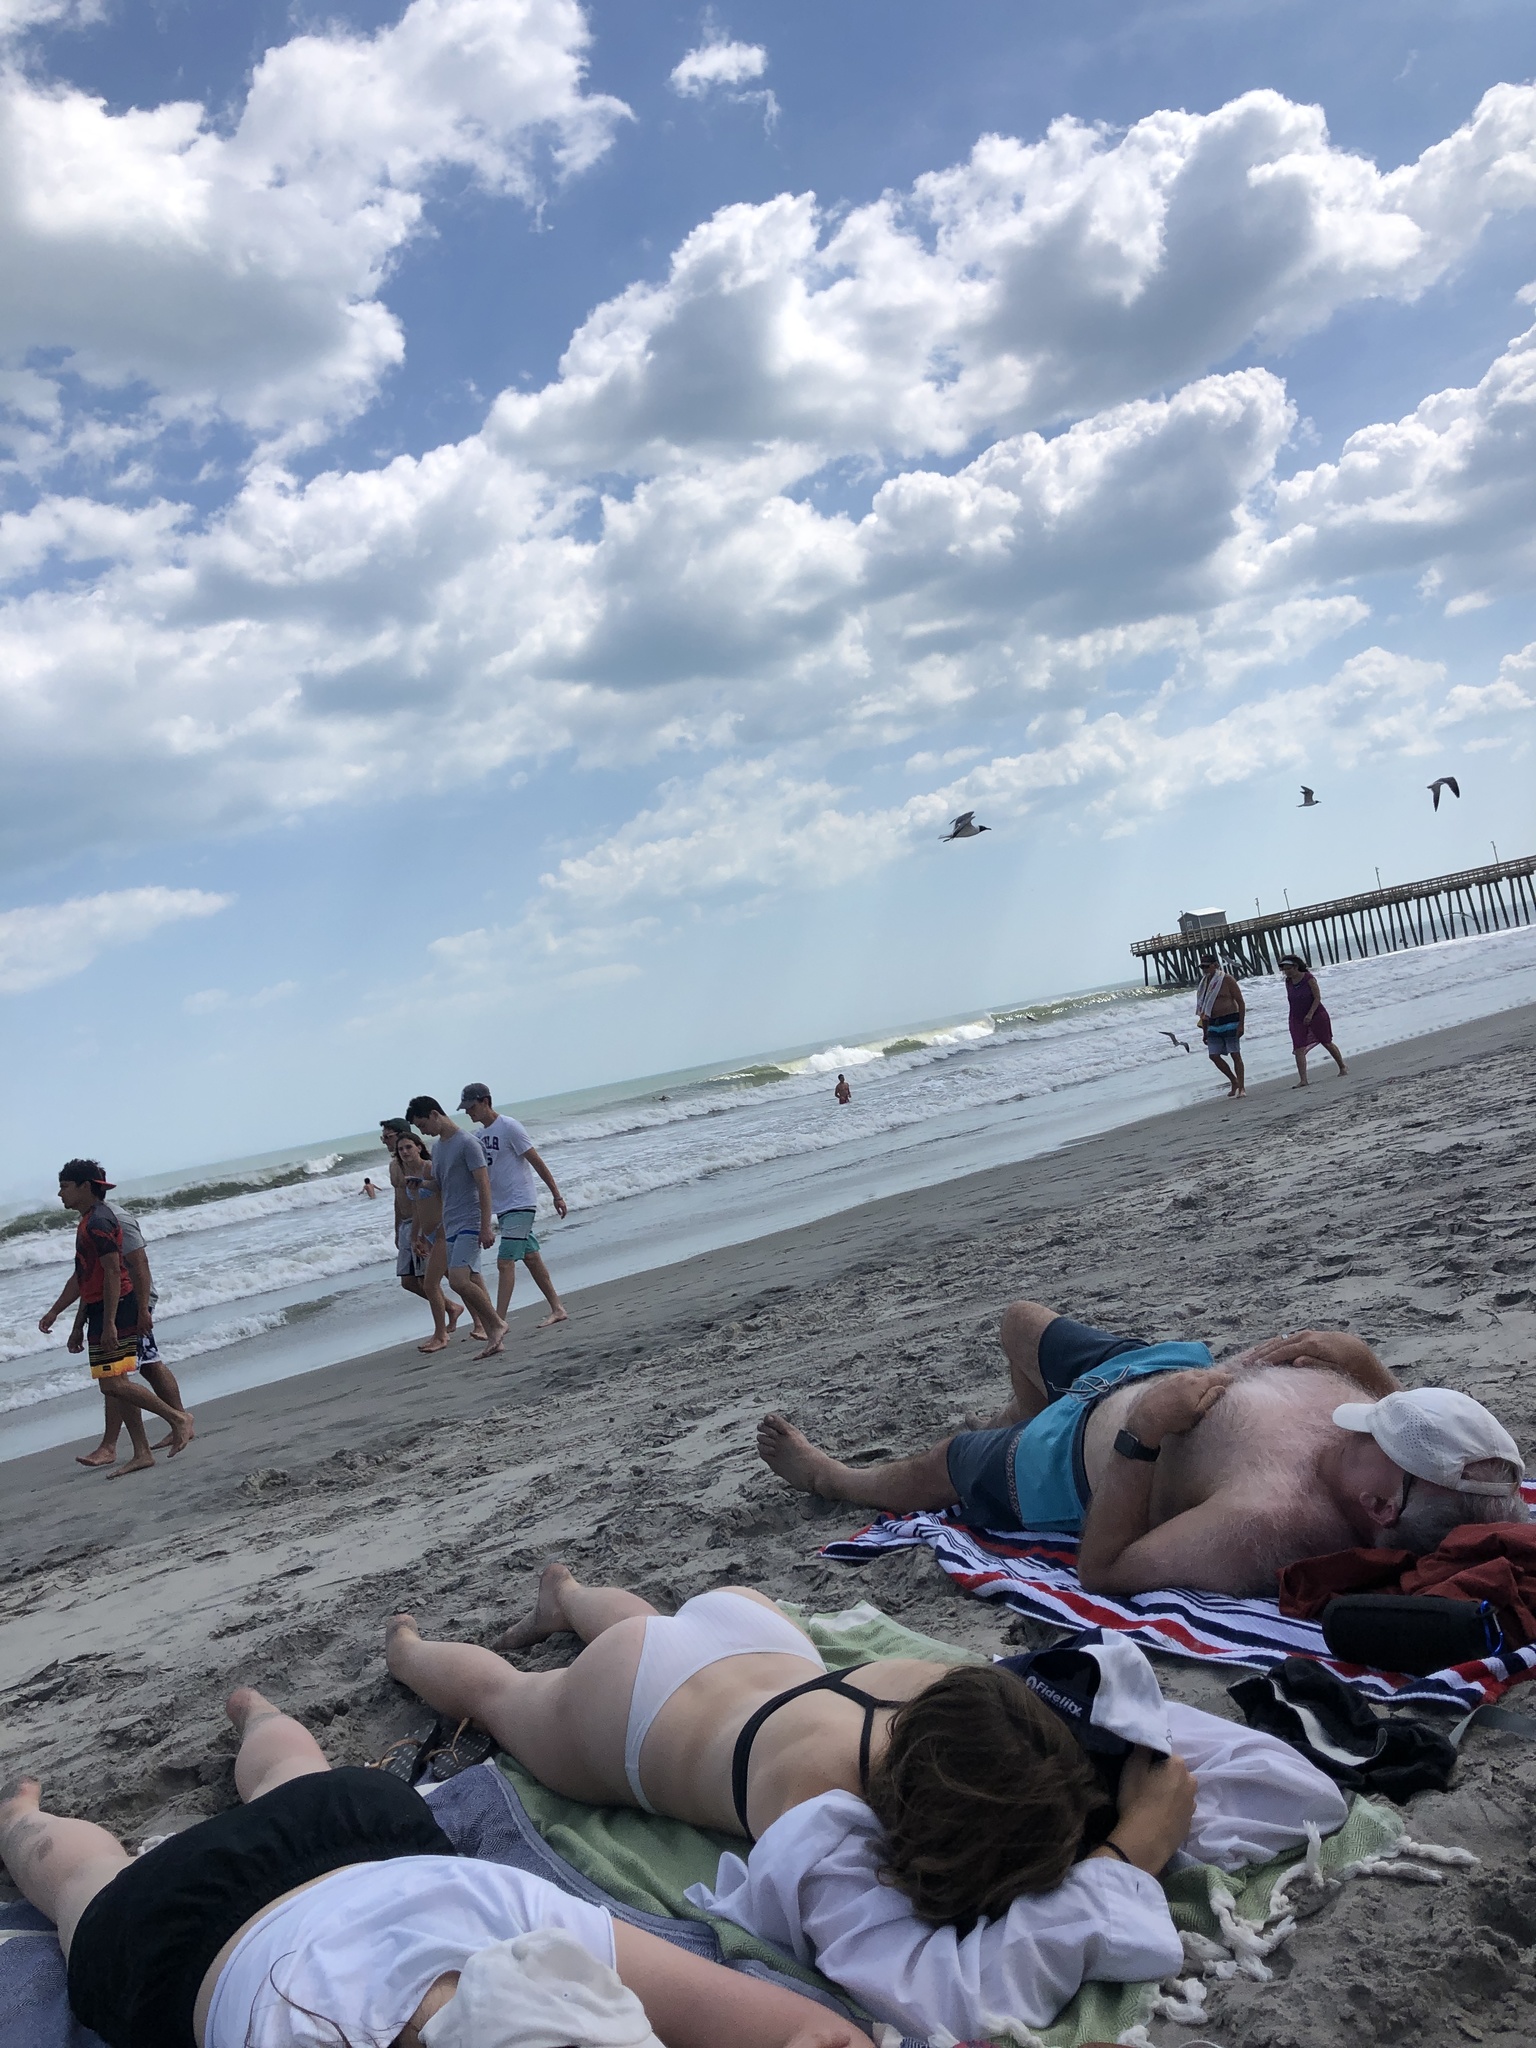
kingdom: Animalia
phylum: Chordata
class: Aves
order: Charadriiformes
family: Laridae
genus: Leucophaeus
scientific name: Leucophaeus atricilla
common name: Laughing gull
